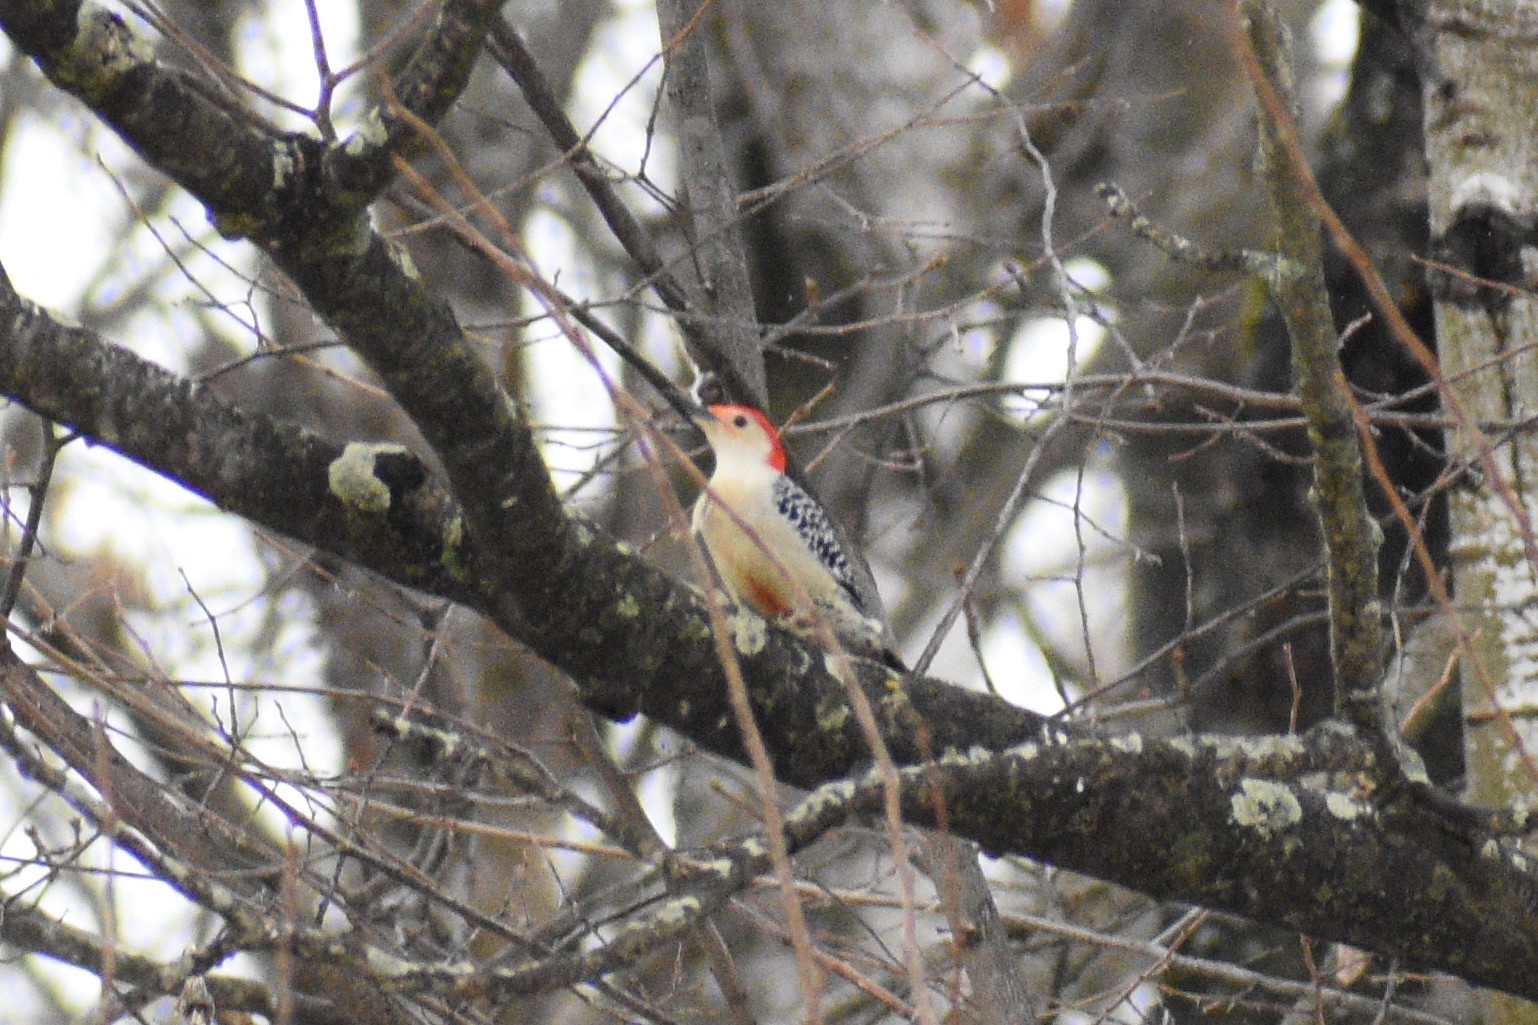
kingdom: Animalia
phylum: Chordata
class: Aves
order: Piciformes
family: Picidae
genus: Melanerpes
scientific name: Melanerpes carolinus
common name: Red-bellied woodpecker
